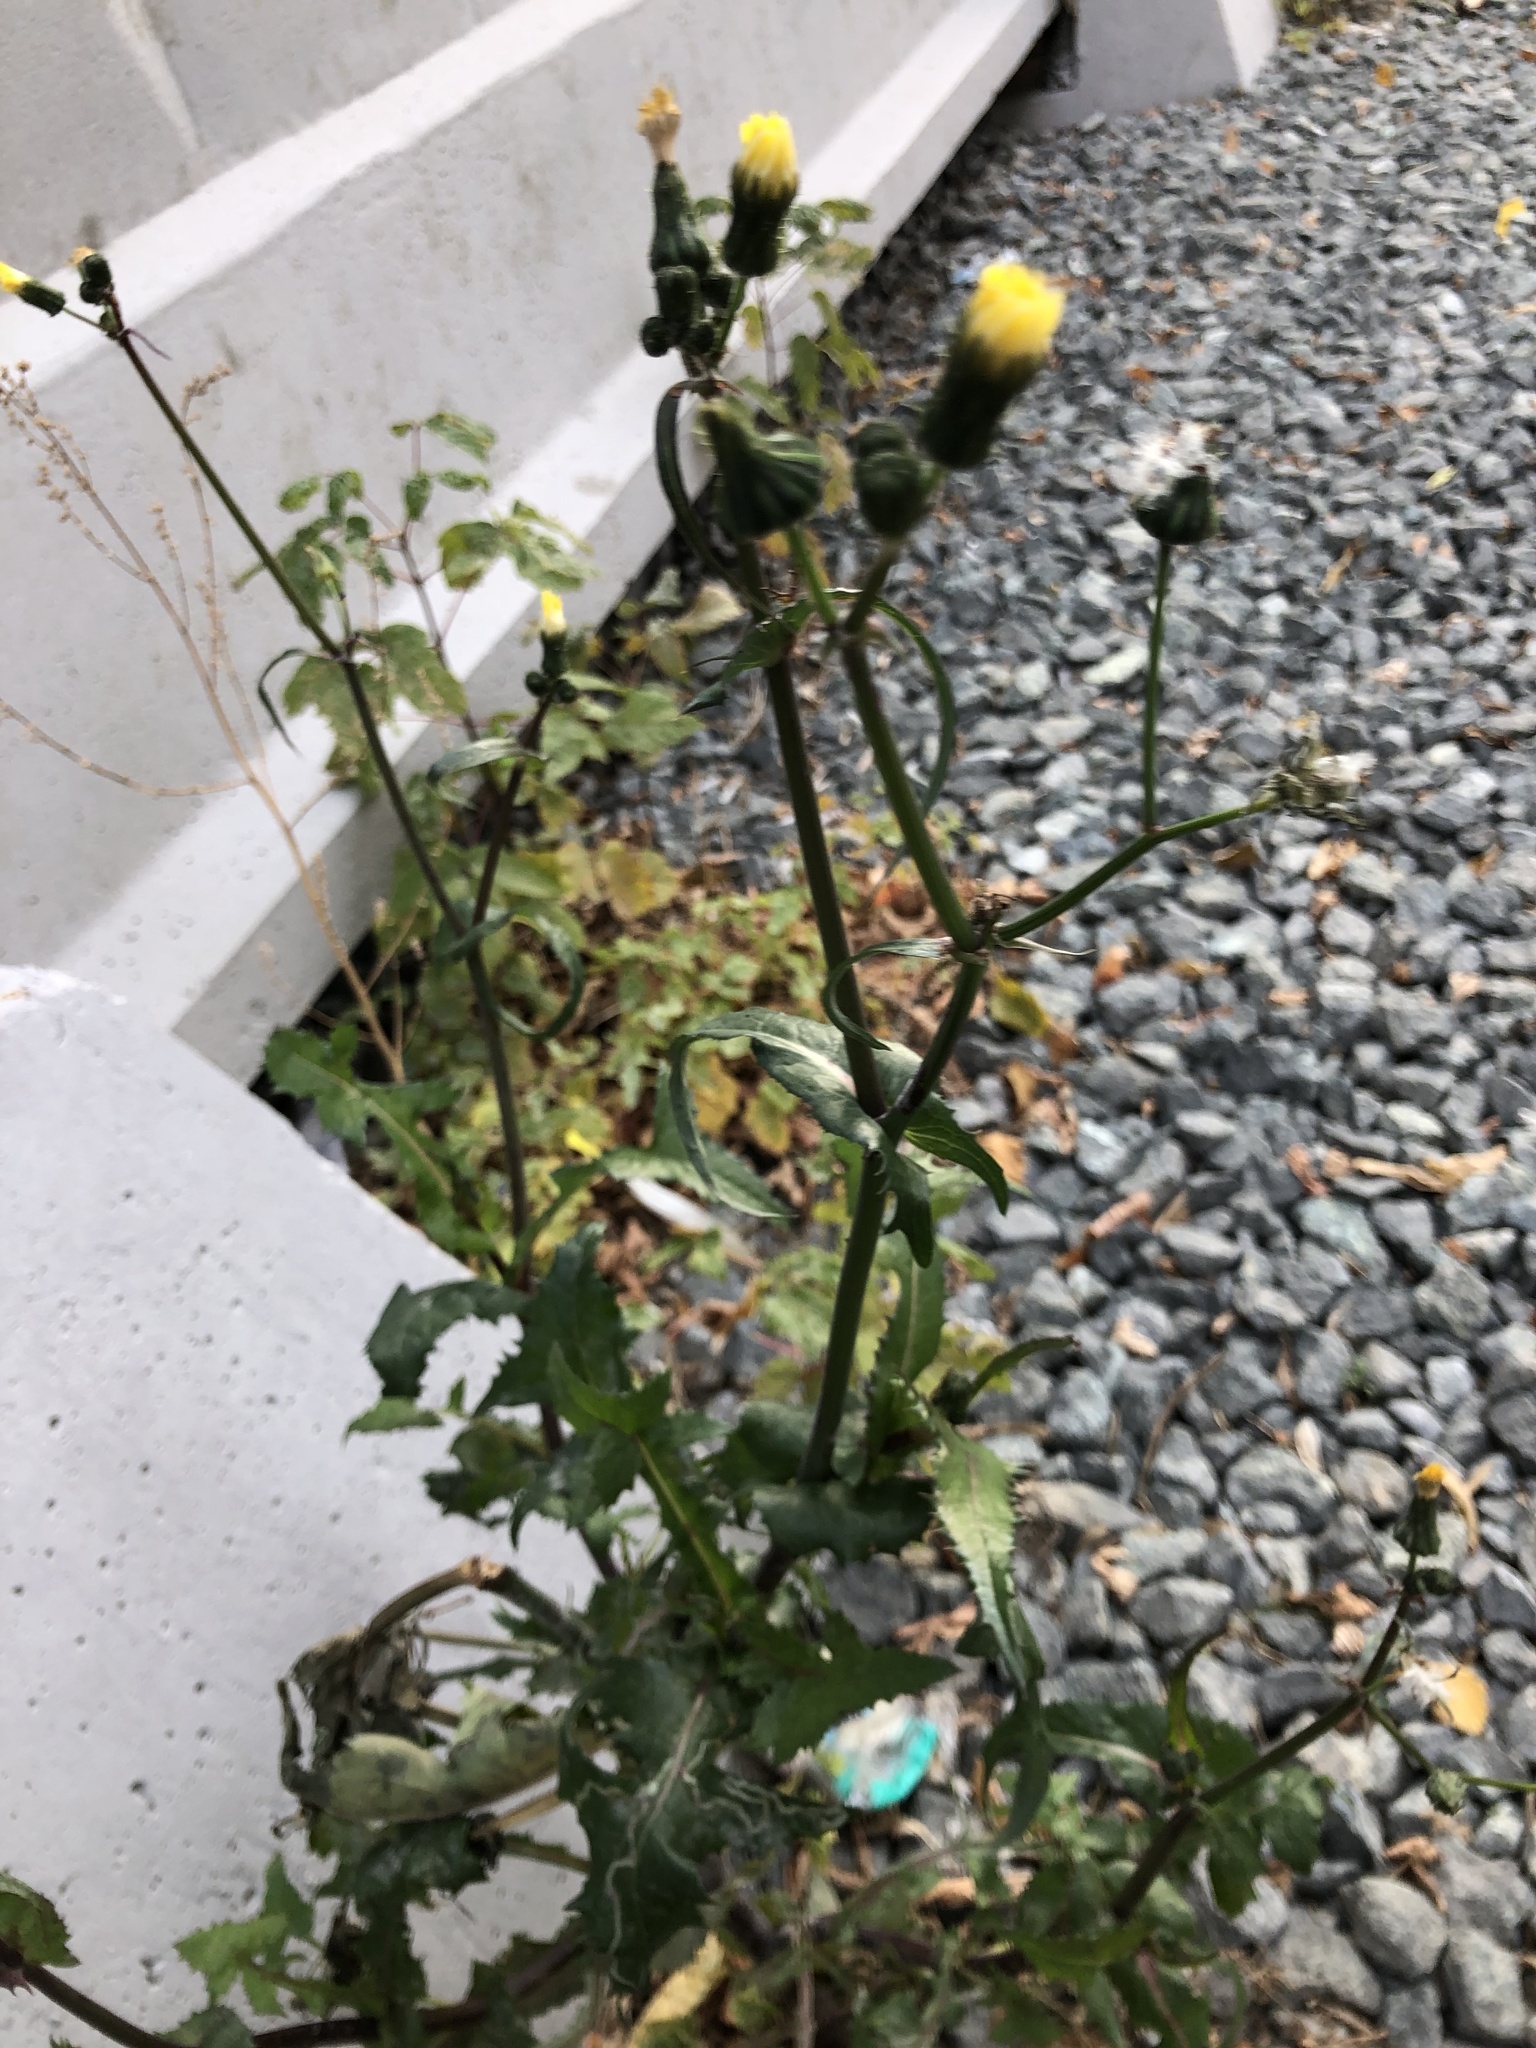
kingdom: Plantae
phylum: Tracheophyta
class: Magnoliopsida
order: Asterales
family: Asteraceae
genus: Sonchus
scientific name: Sonchus oleraceus
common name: Common sowthistle
